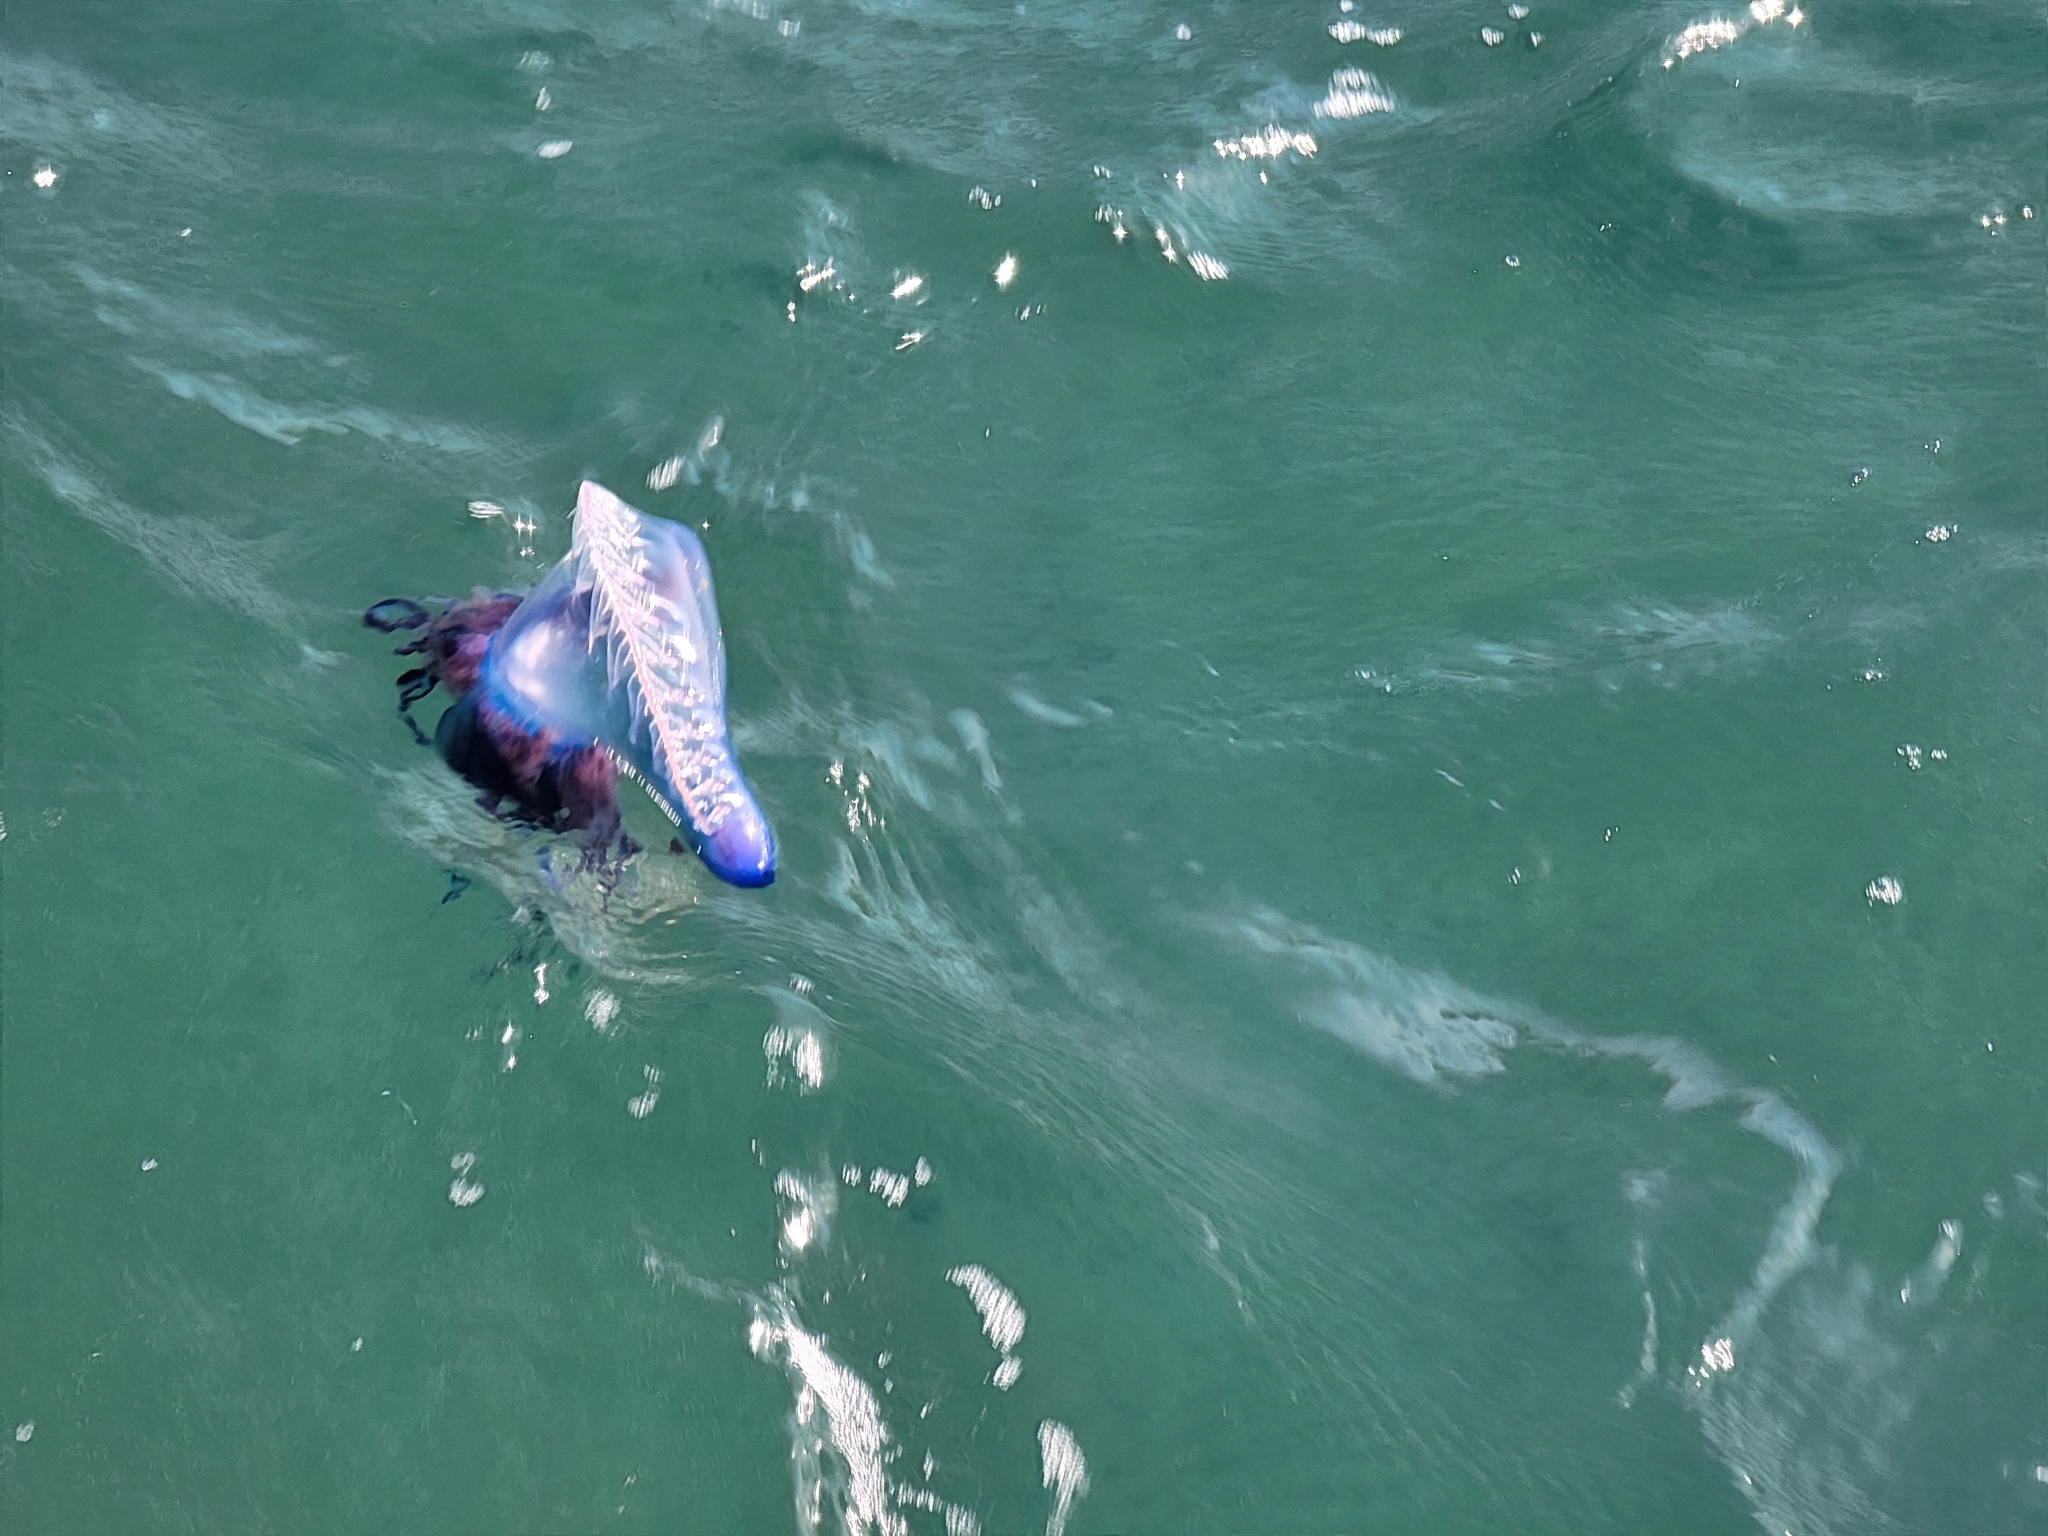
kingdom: Animalia
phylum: Cnidaria
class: Hydrozoa
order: Siphonophorae
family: Physaliidae
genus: Physalia
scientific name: Physalia physalis
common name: Portuguese man-of-war
